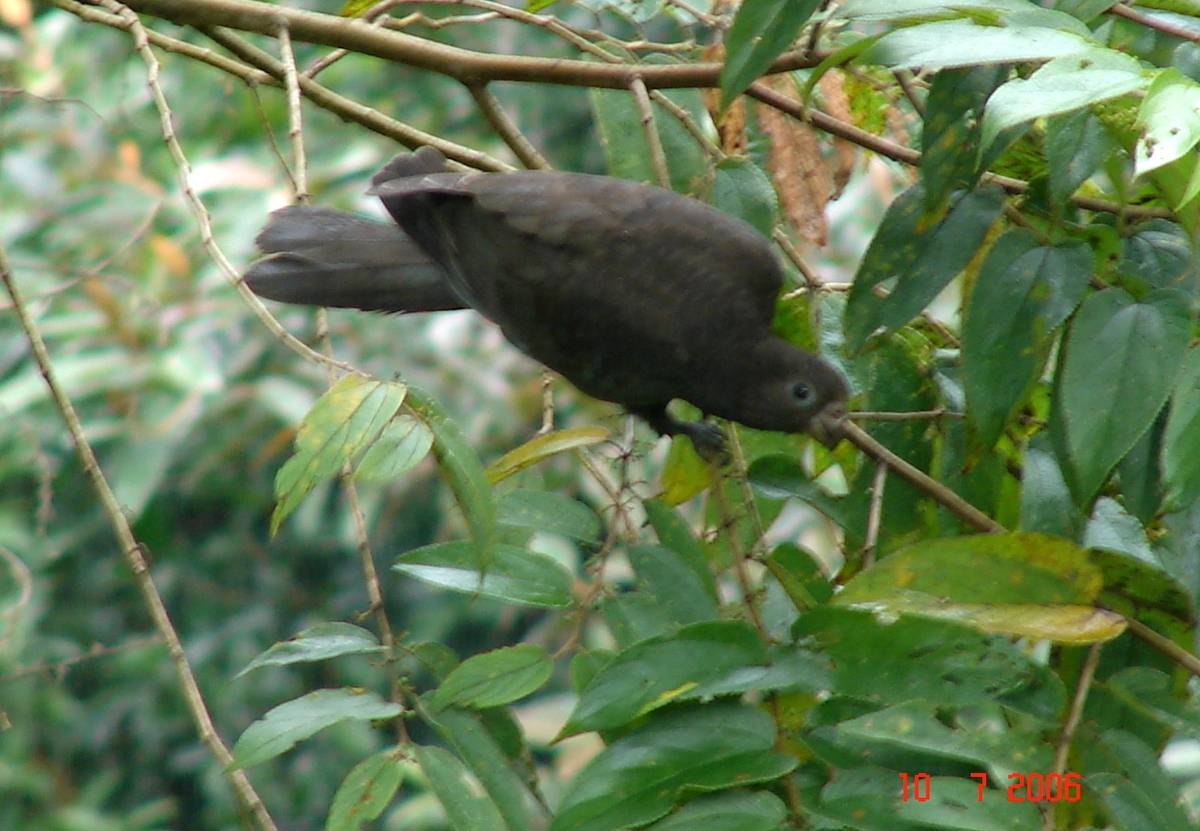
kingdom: Animalia
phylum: Chordata
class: Aves
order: Psittaciformes
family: Psittacidae
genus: Coracopsis
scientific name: Coracopsis nigra
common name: Lesser vasa parrot
